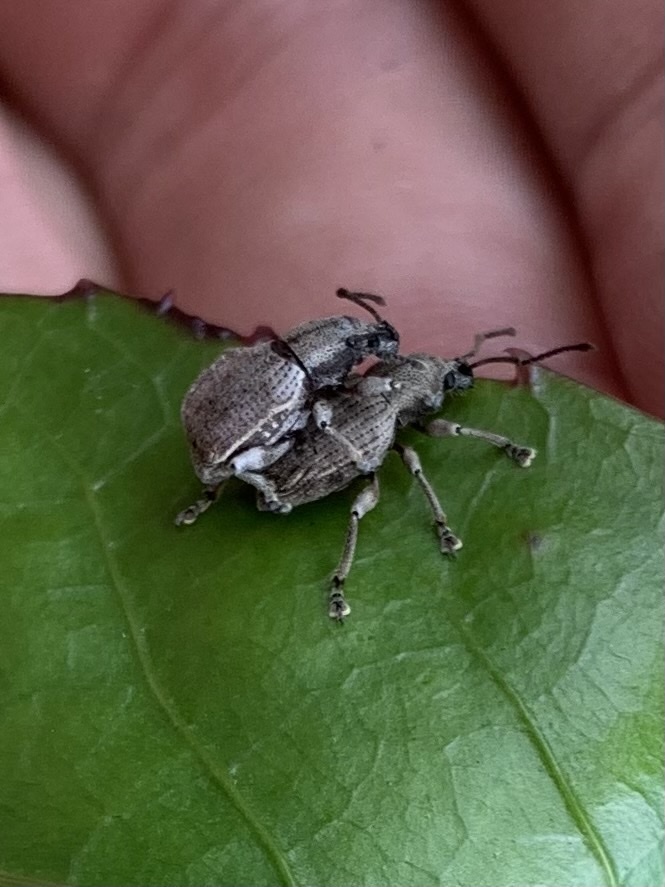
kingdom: Animalia
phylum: Arthropoda
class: Insecta
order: Coleoptera
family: Curculionidae
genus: Platysimus
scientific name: Platysimus septentrionalis
